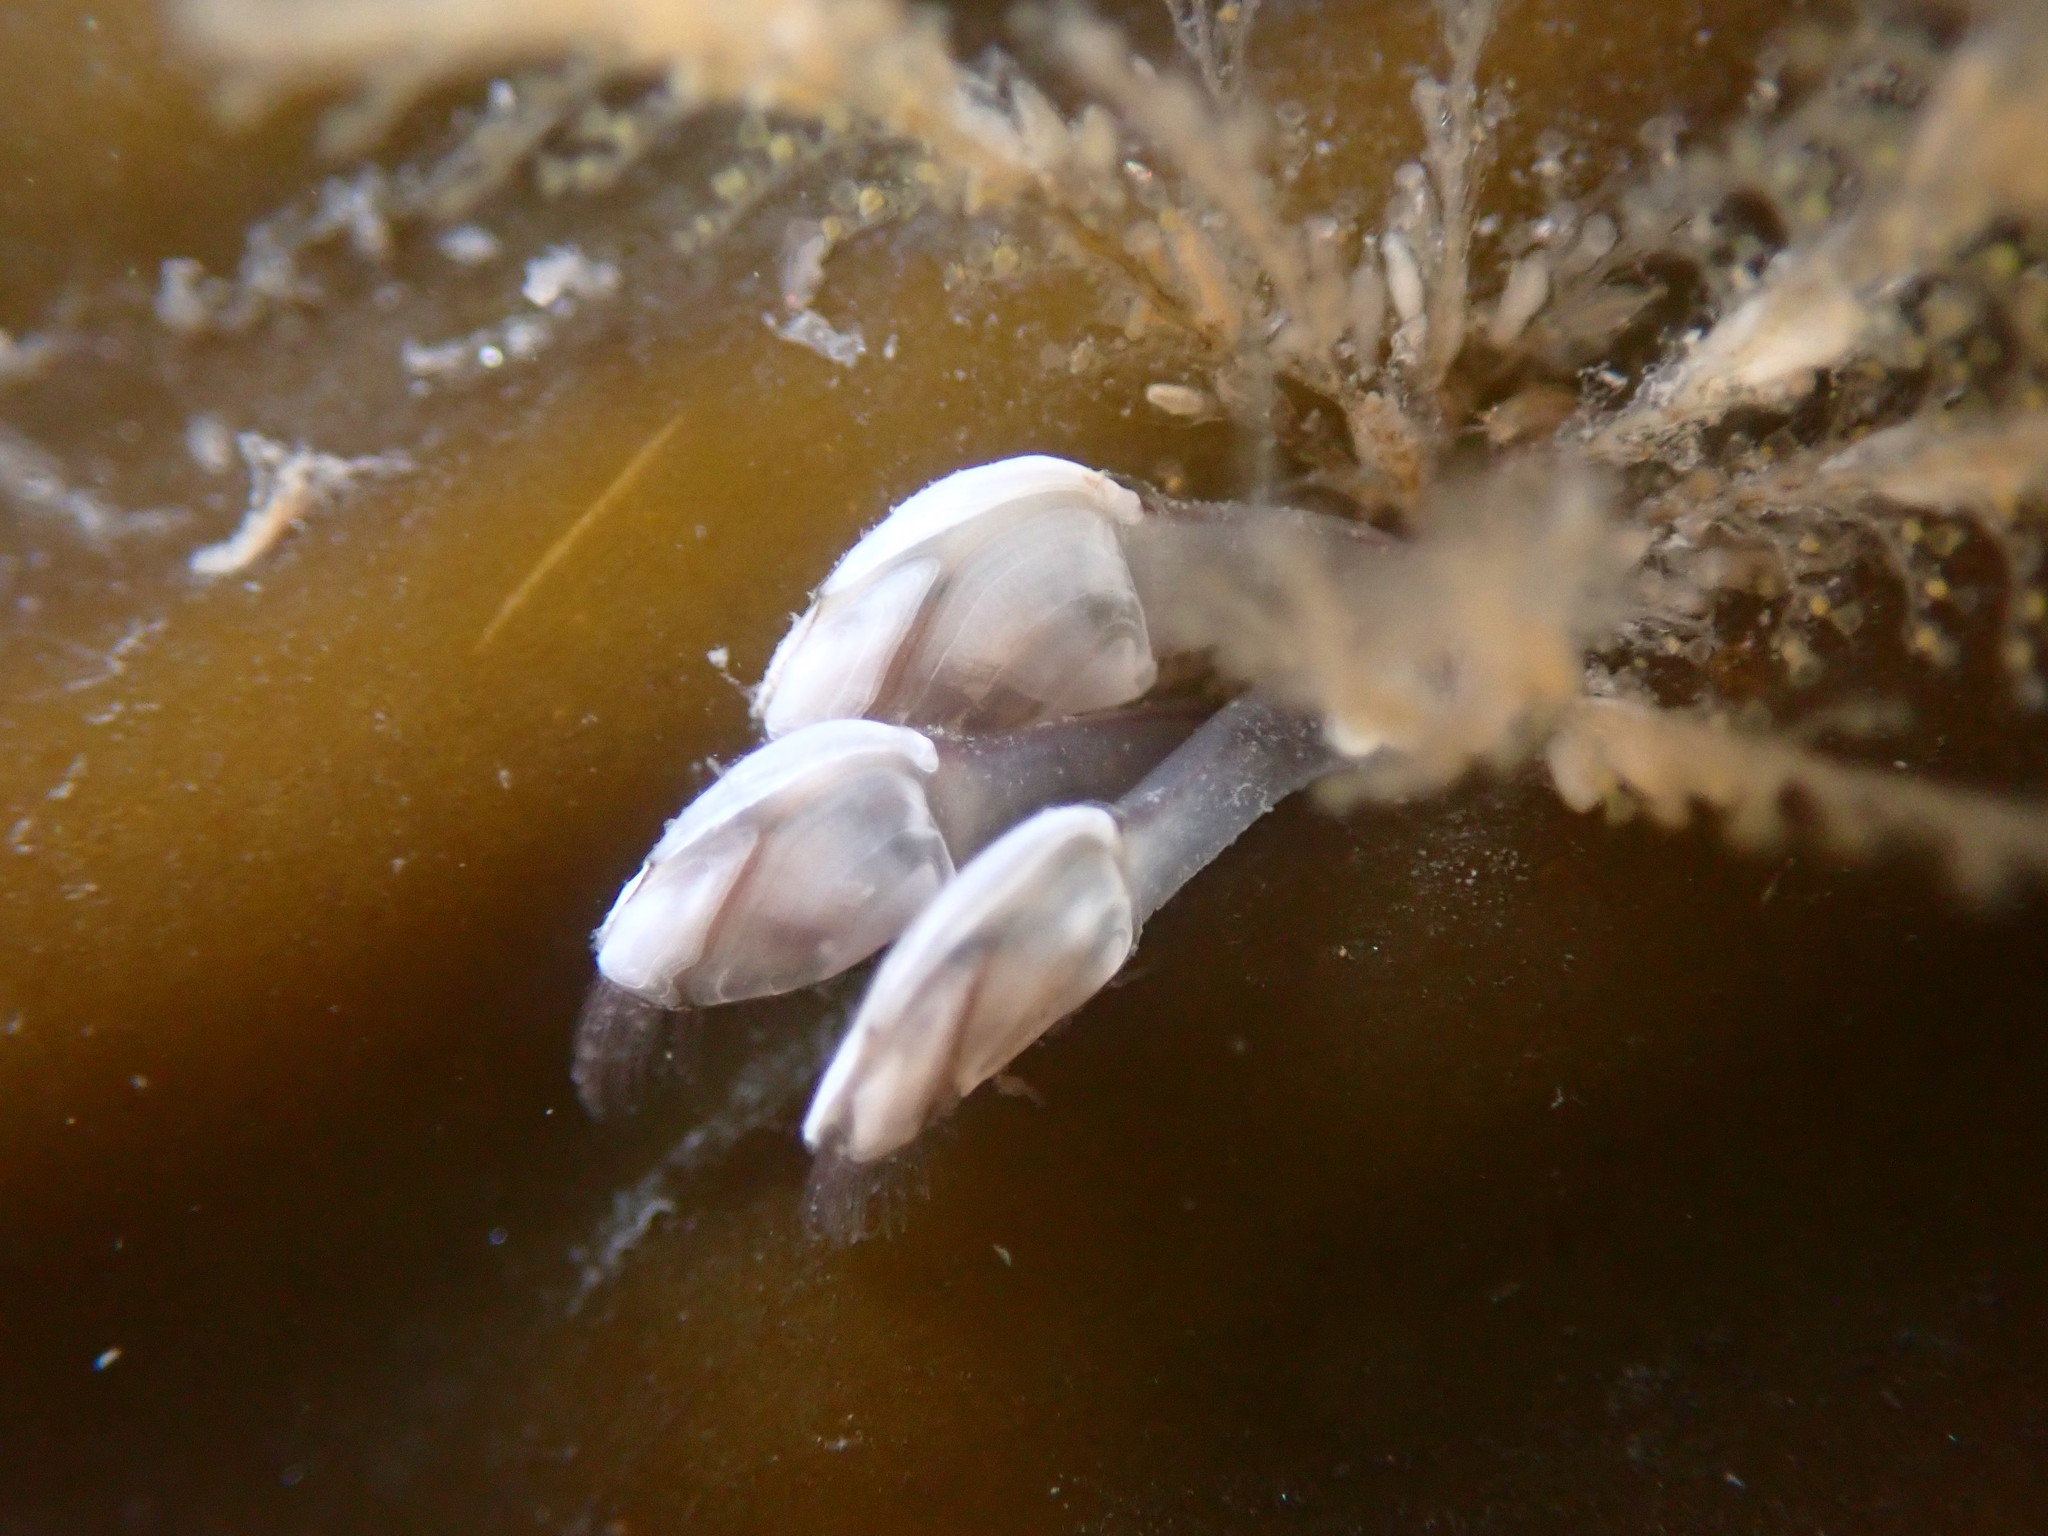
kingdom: Animalia
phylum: Arthropoda
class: Maxillopoda
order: Pedunculata
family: Lepadidae
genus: Lepas
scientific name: Lepas pacifica
